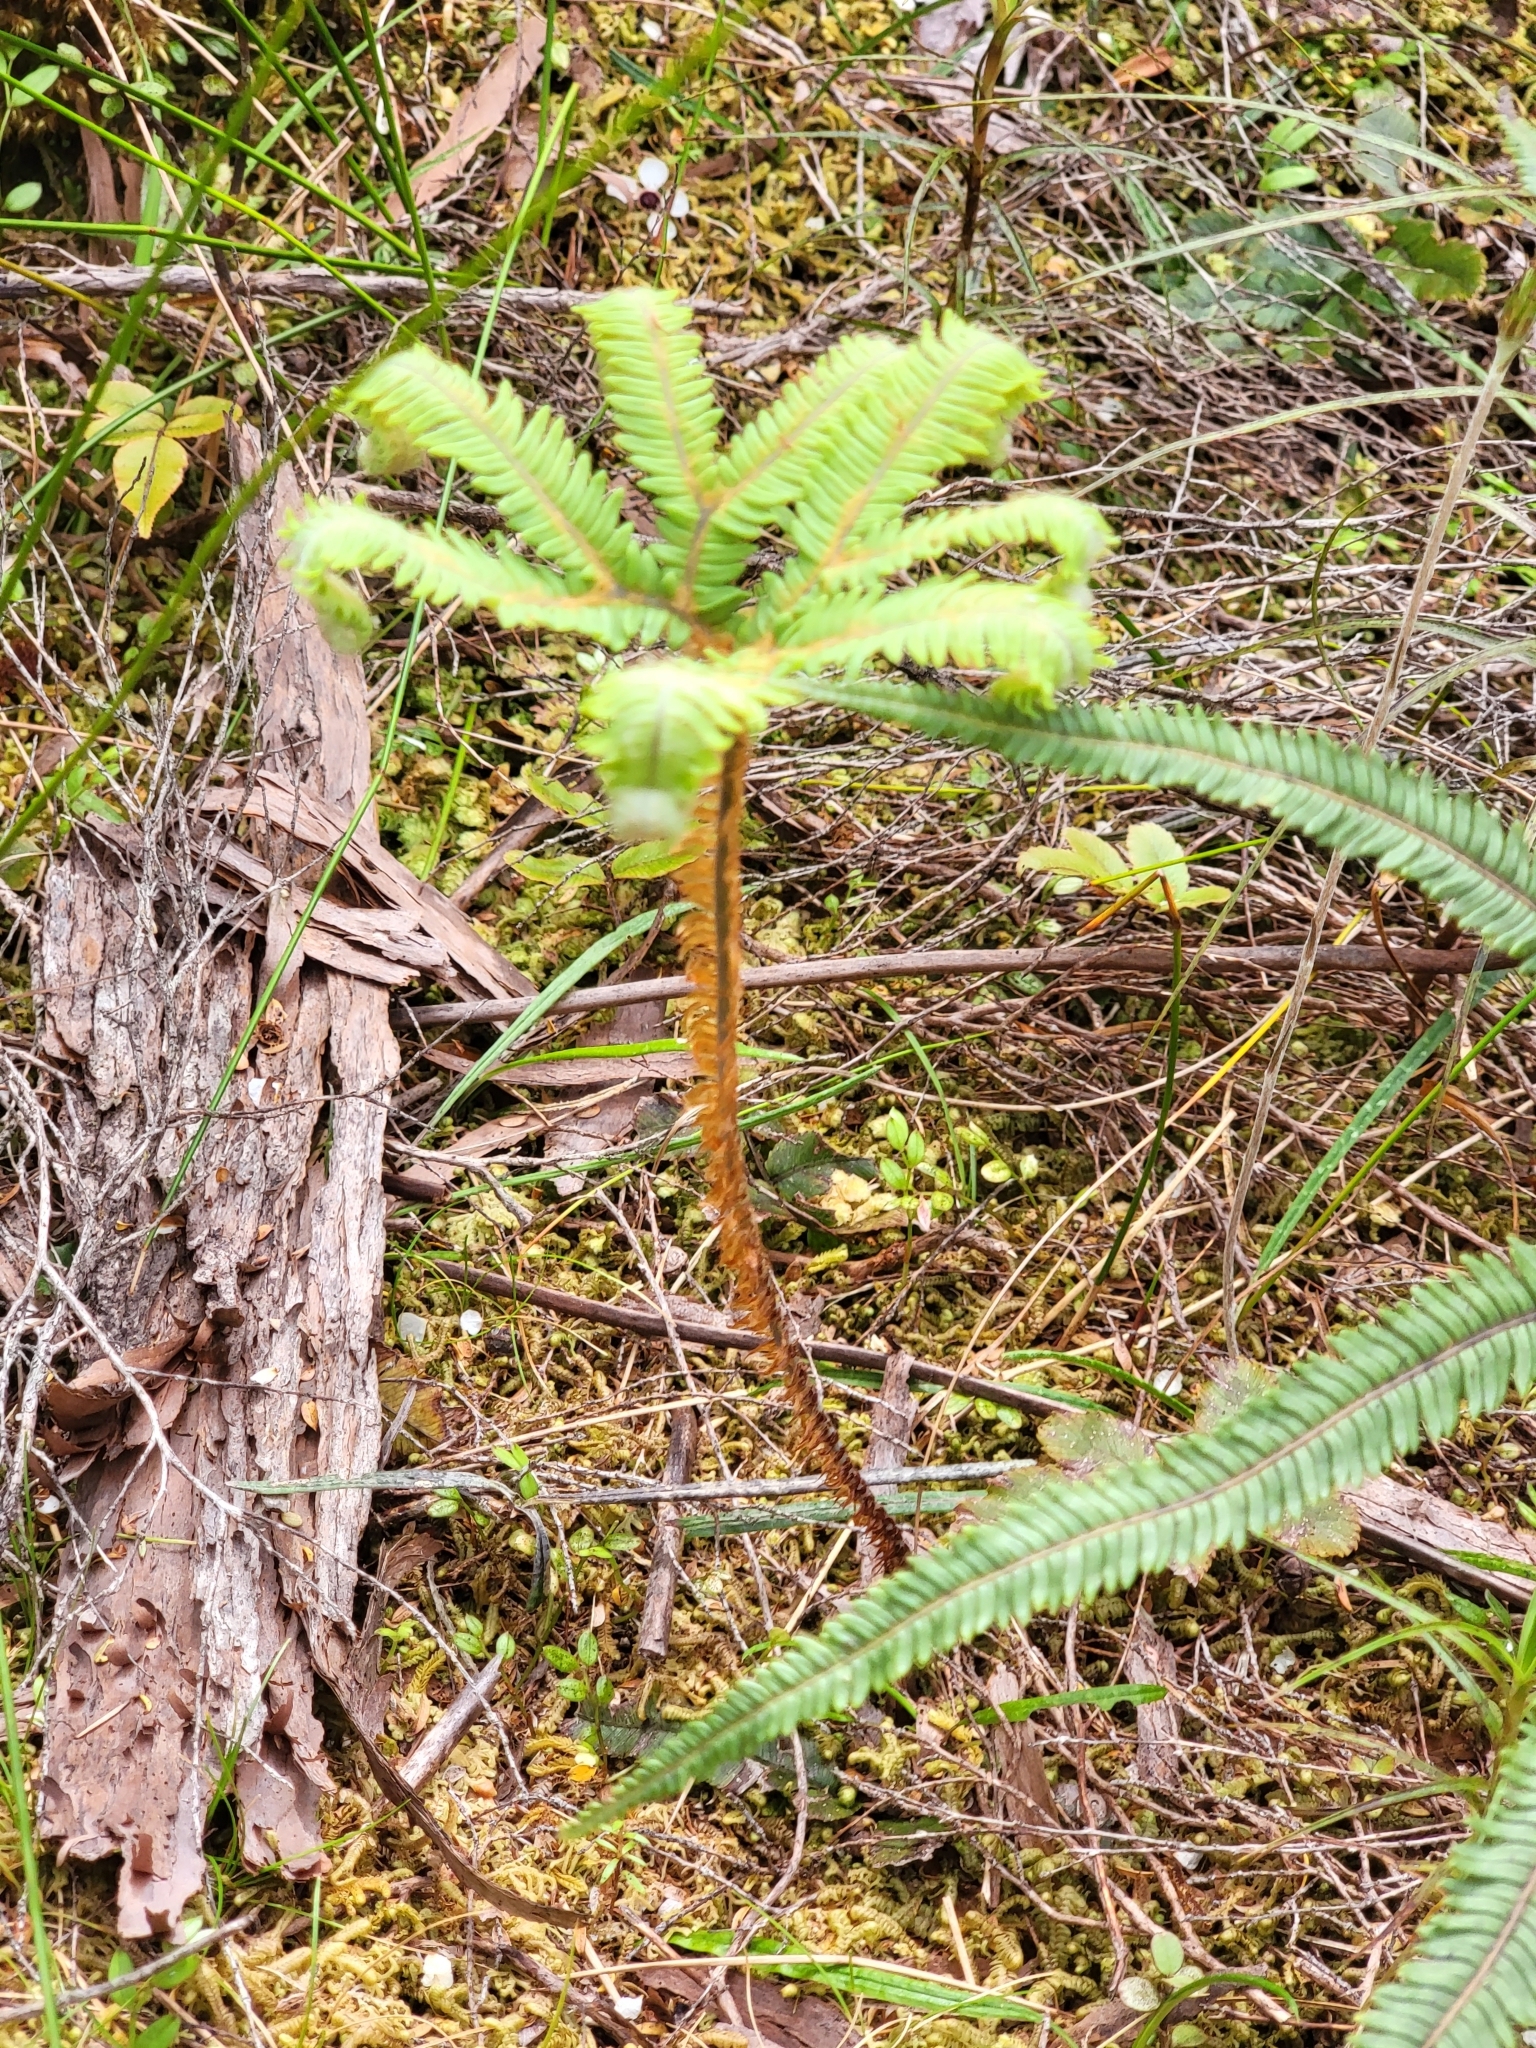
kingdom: Plantae
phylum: Tracheophyta
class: Polypodiopsida
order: Gleicheniales
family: Gleicheniaceae
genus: Sticherus
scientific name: Sticherus cunninghamii
